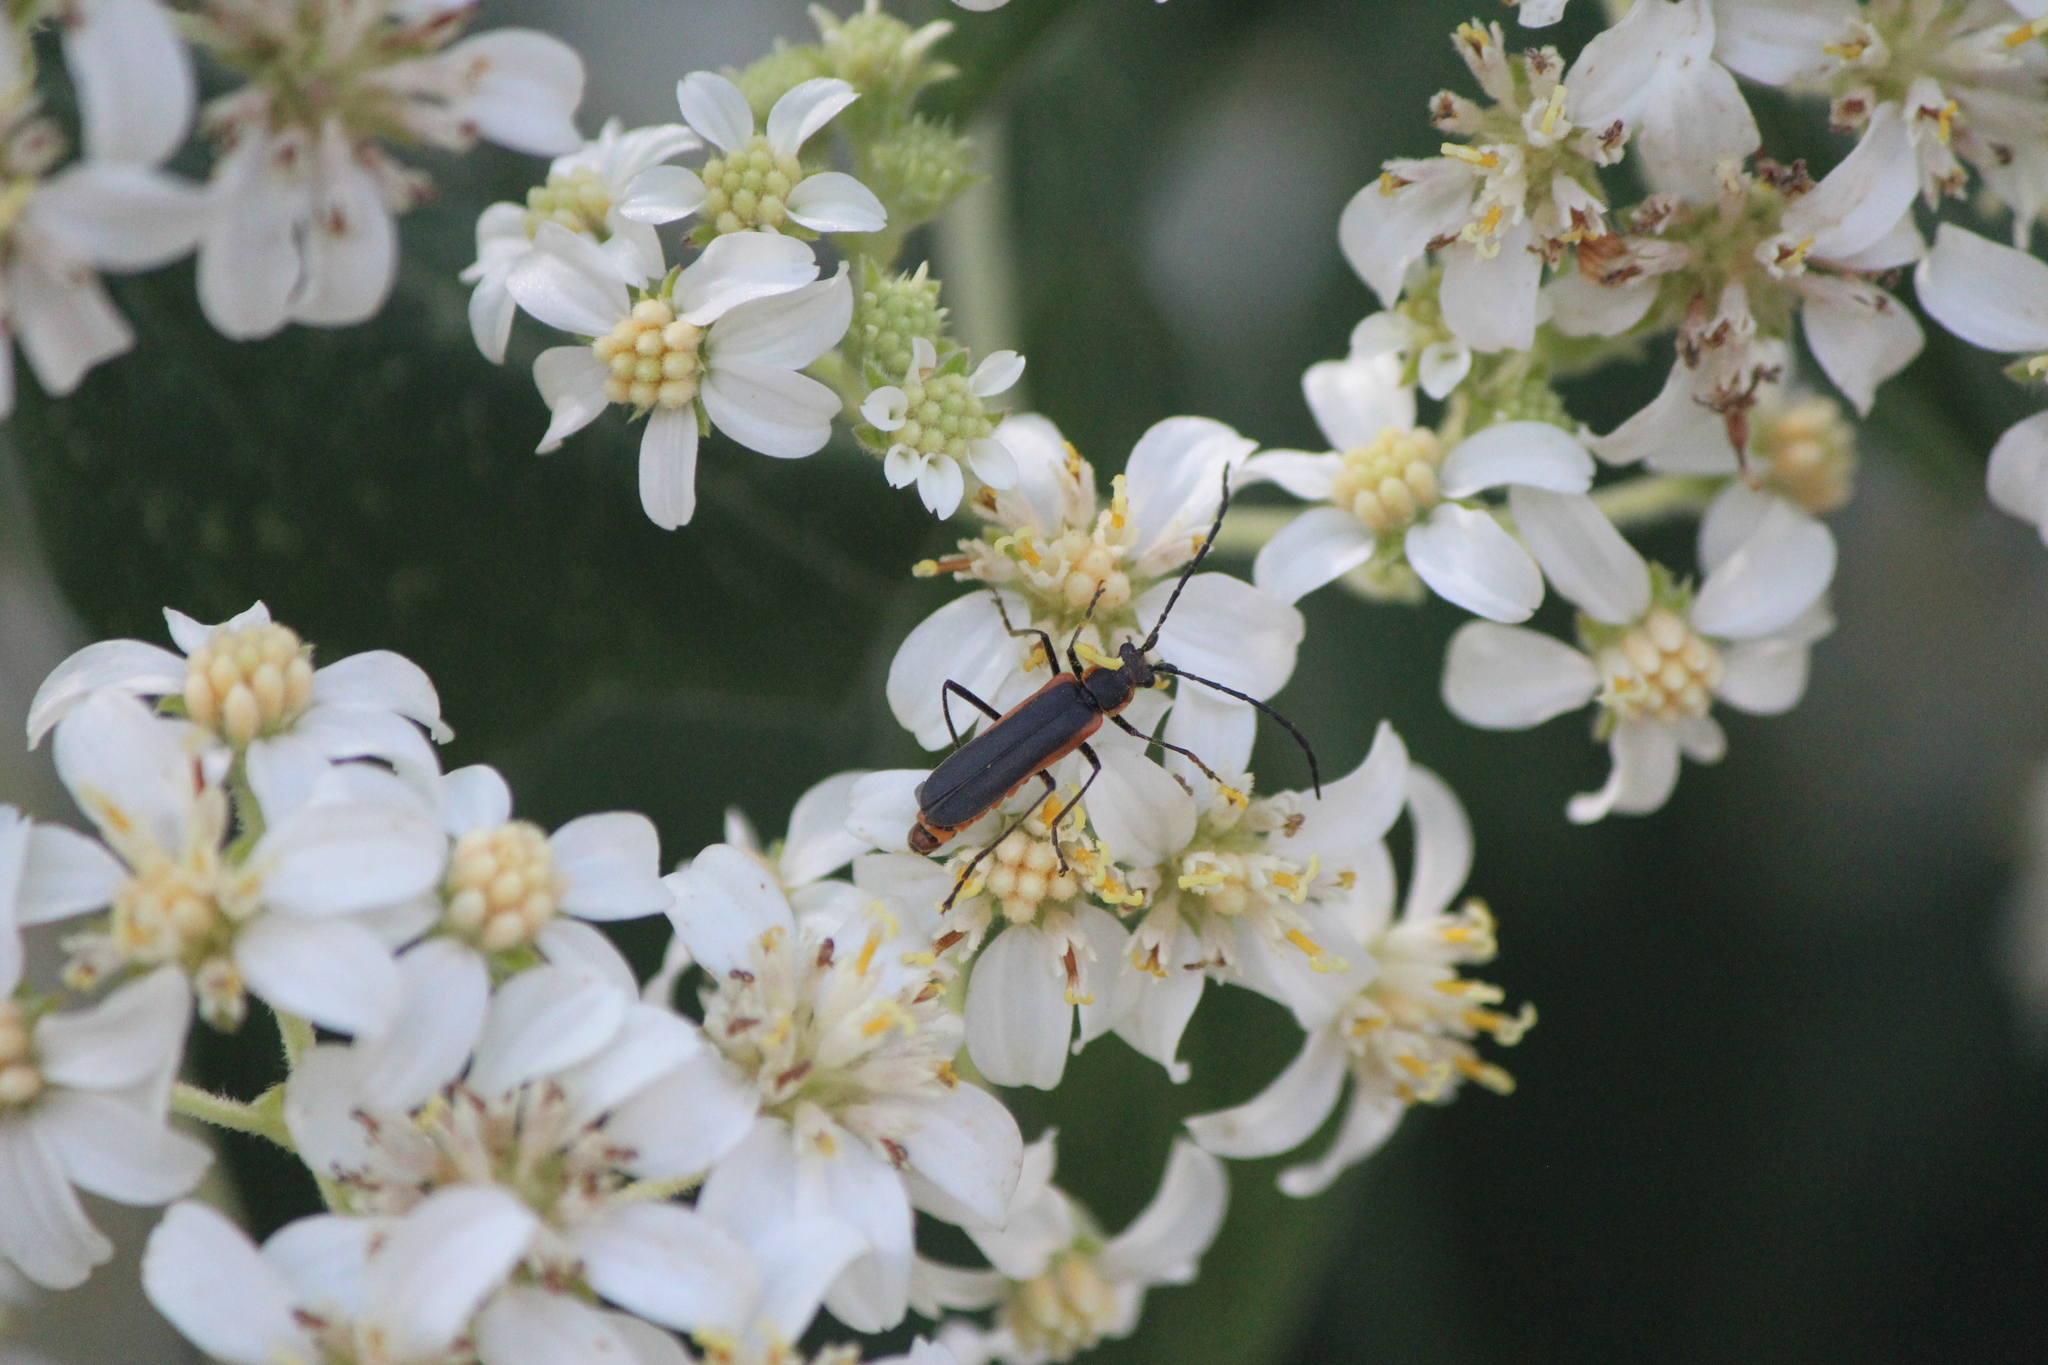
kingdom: Animalia
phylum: Arthropoda
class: Insecta
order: Coleoptera
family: Cantharidae
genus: Chauliognathus
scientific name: Chauliognathus limbicollis
